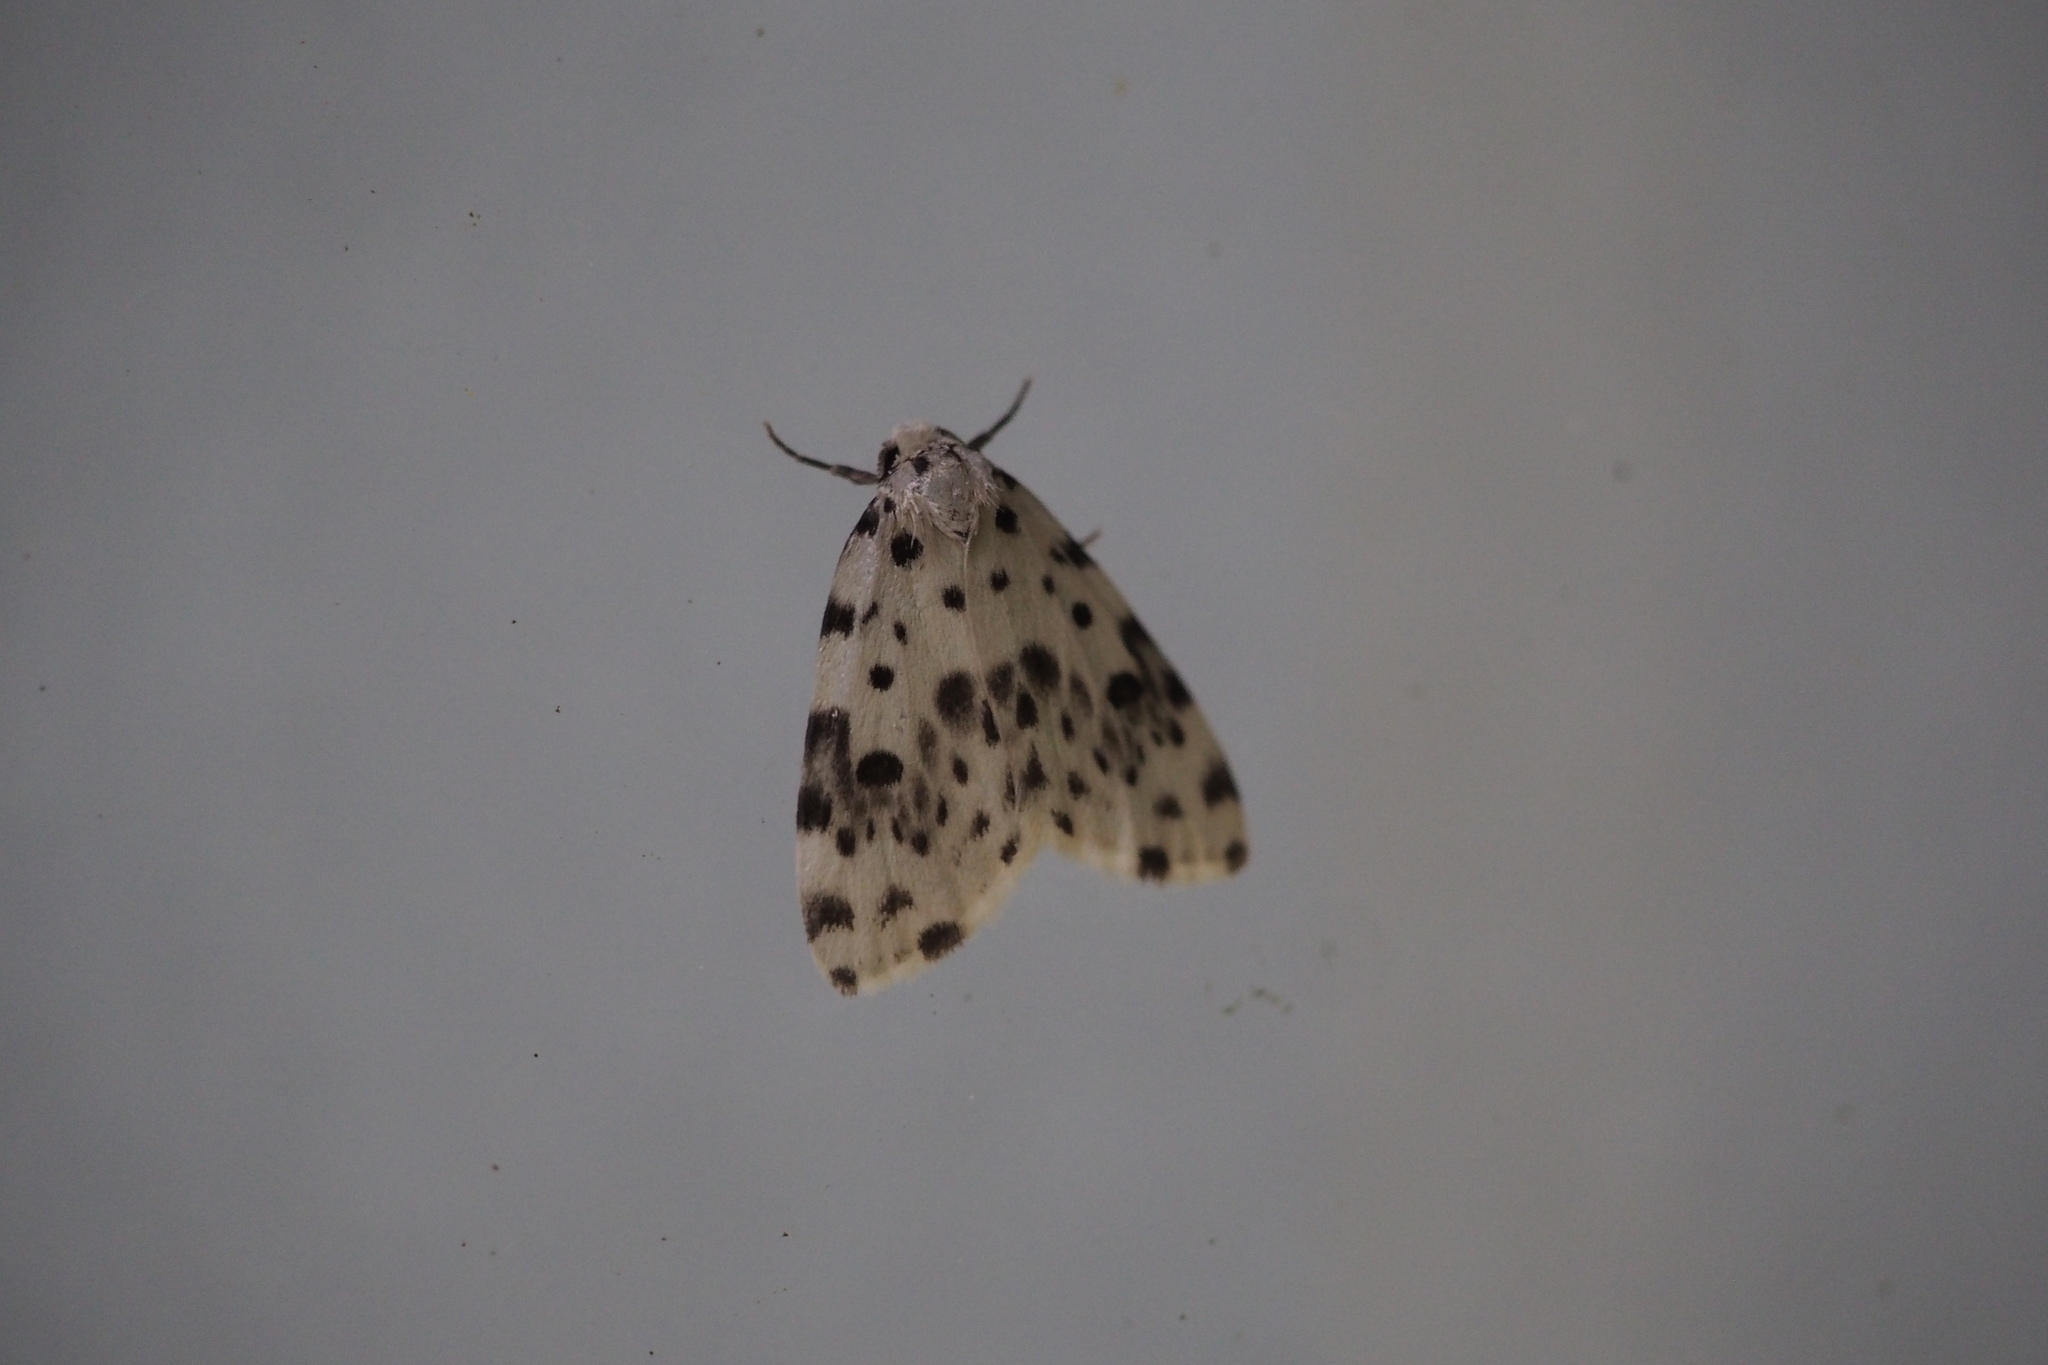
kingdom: Animalia
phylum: Arthropoda
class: Insecta
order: Lepidoptera
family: Erebidae
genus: Siccia
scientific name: Siccia altaica
